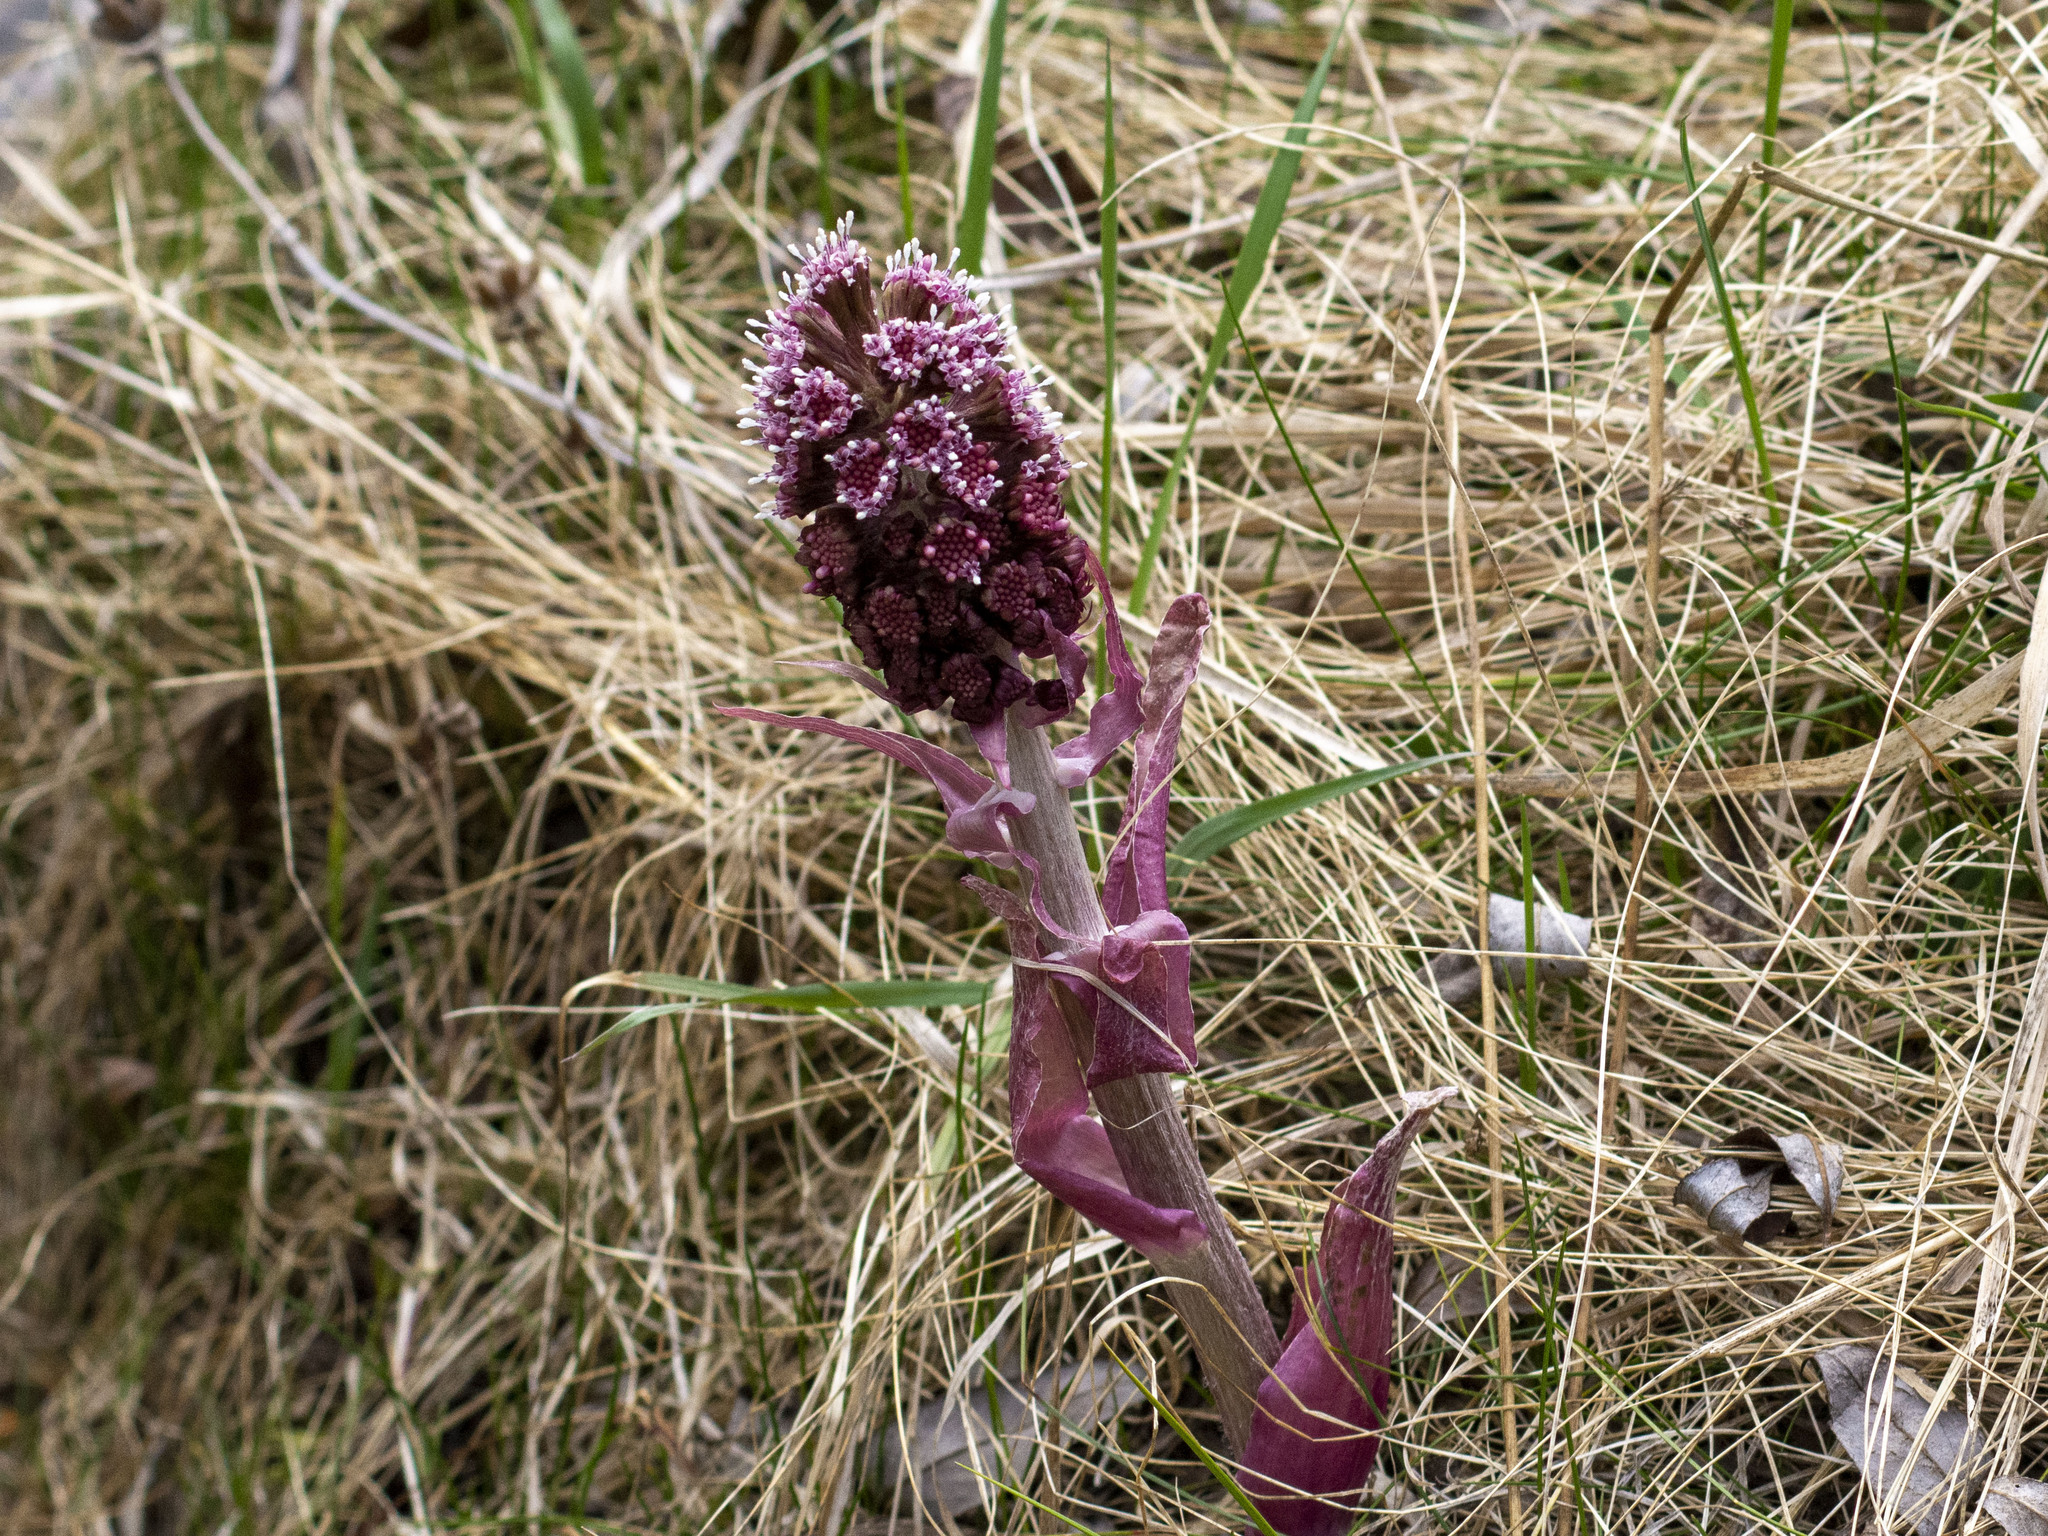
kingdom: Plantae
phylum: Tracheophyta
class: Magnoliopsida
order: Asterales
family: Asteraceae
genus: Petasites
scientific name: Petasites hybridus
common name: Butterbur
